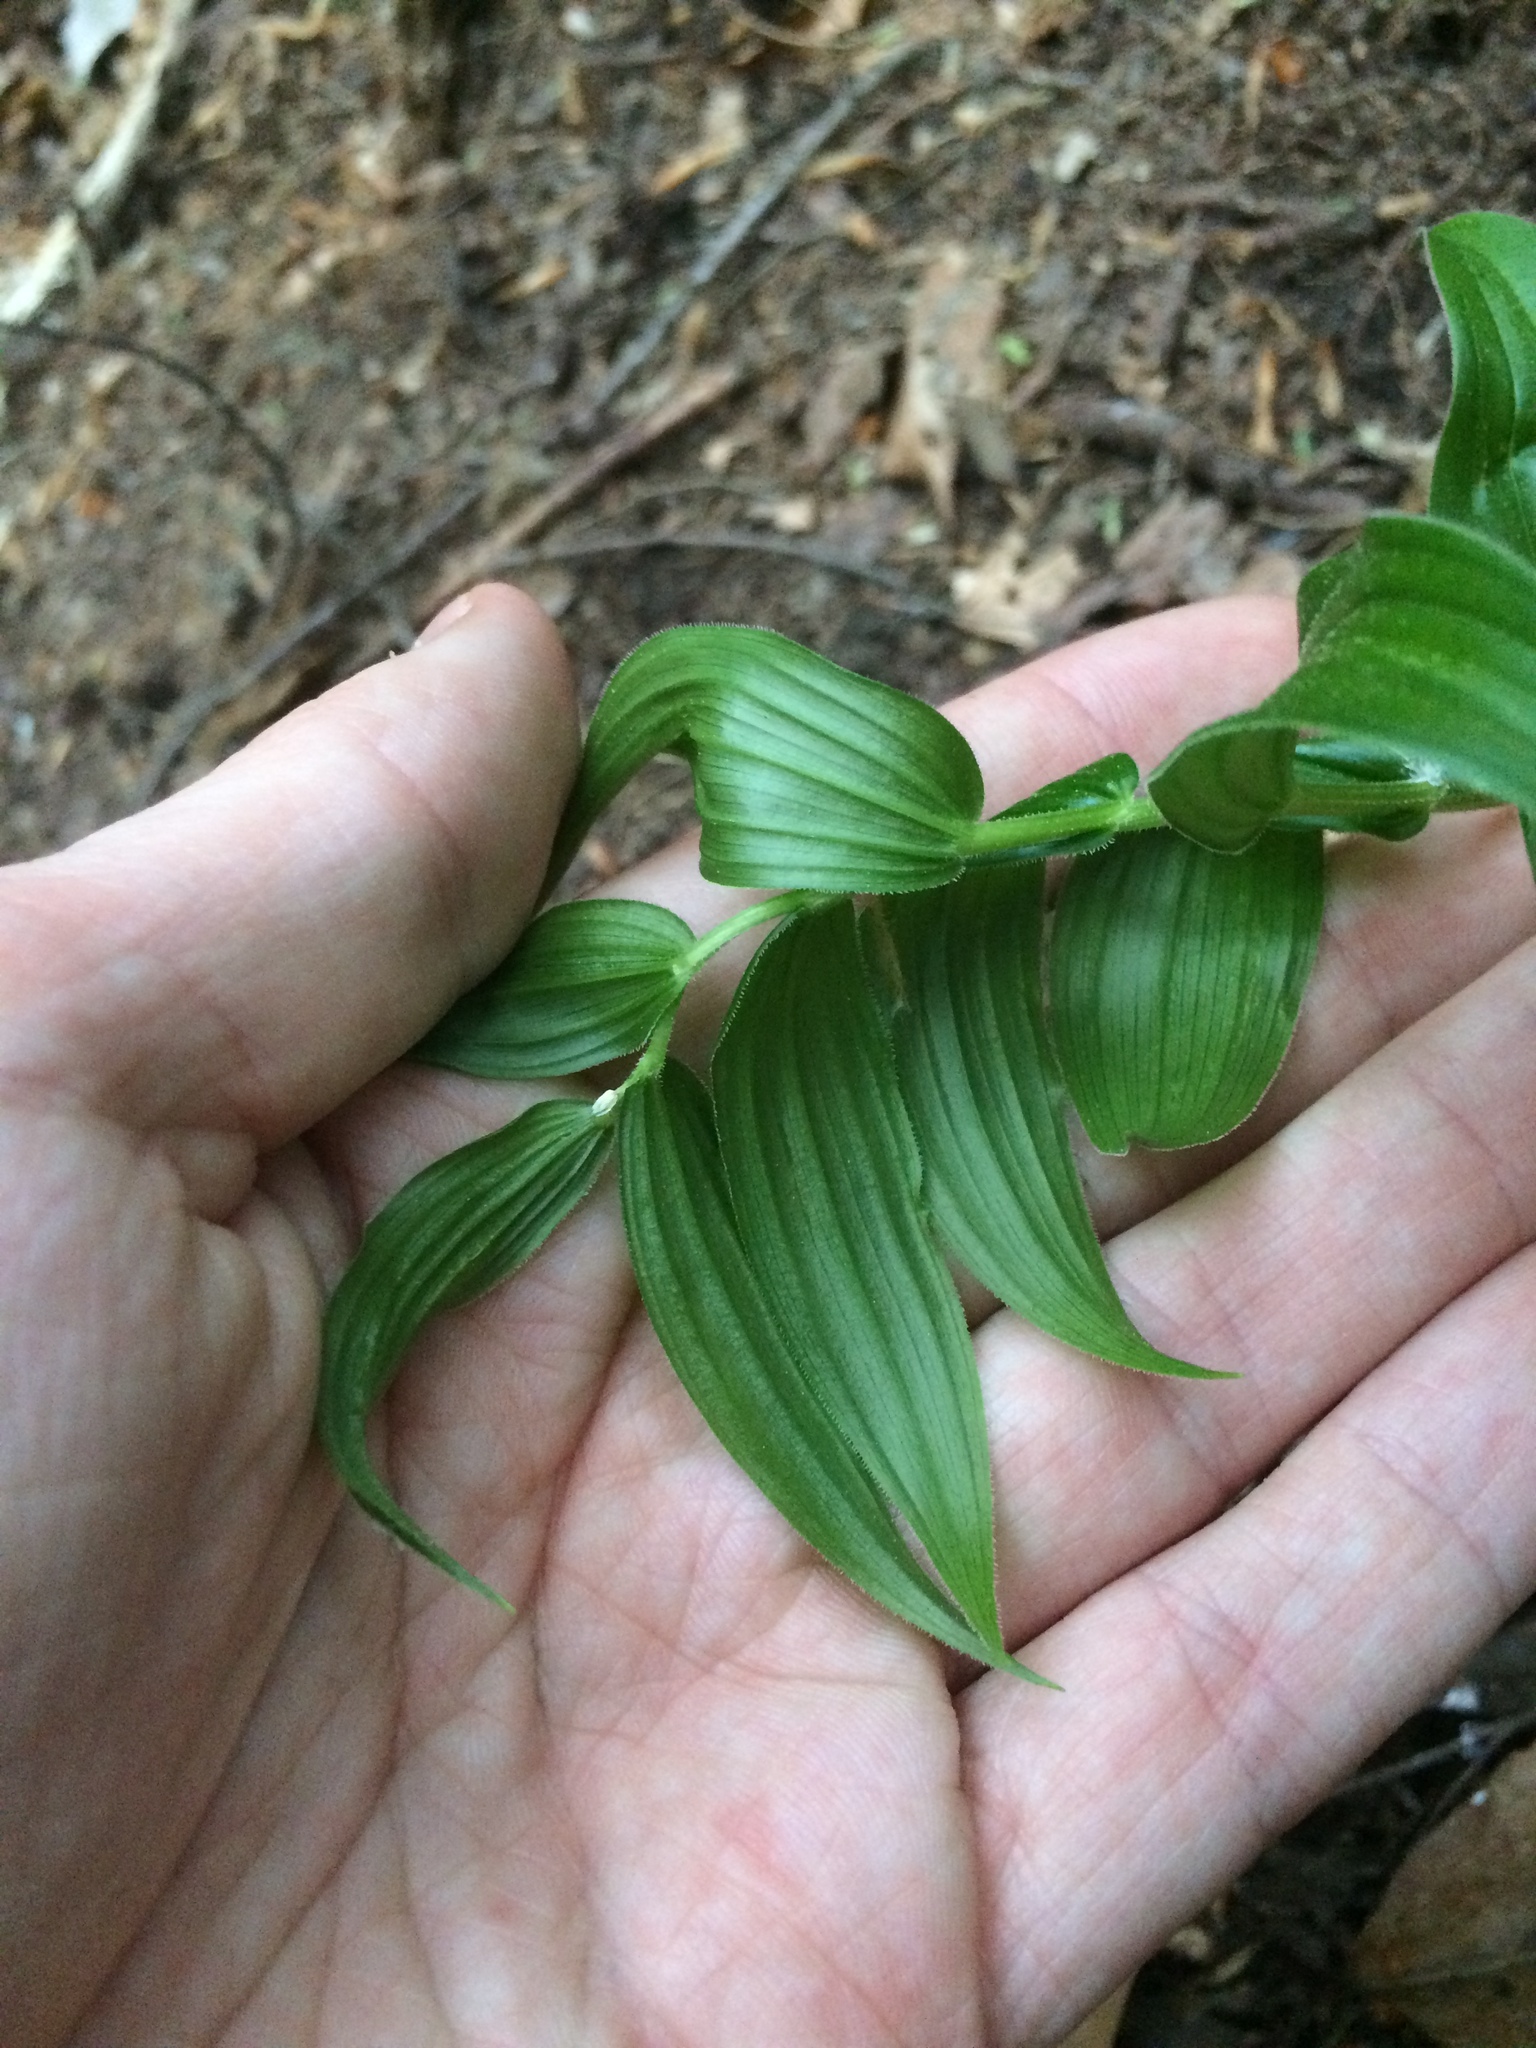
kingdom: Plantae
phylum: Tracheophyta
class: Liliopsida
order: Liliales
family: Liliaceae
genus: Streptopus
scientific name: Streptopus lanceolatus
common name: Rose mandarin
